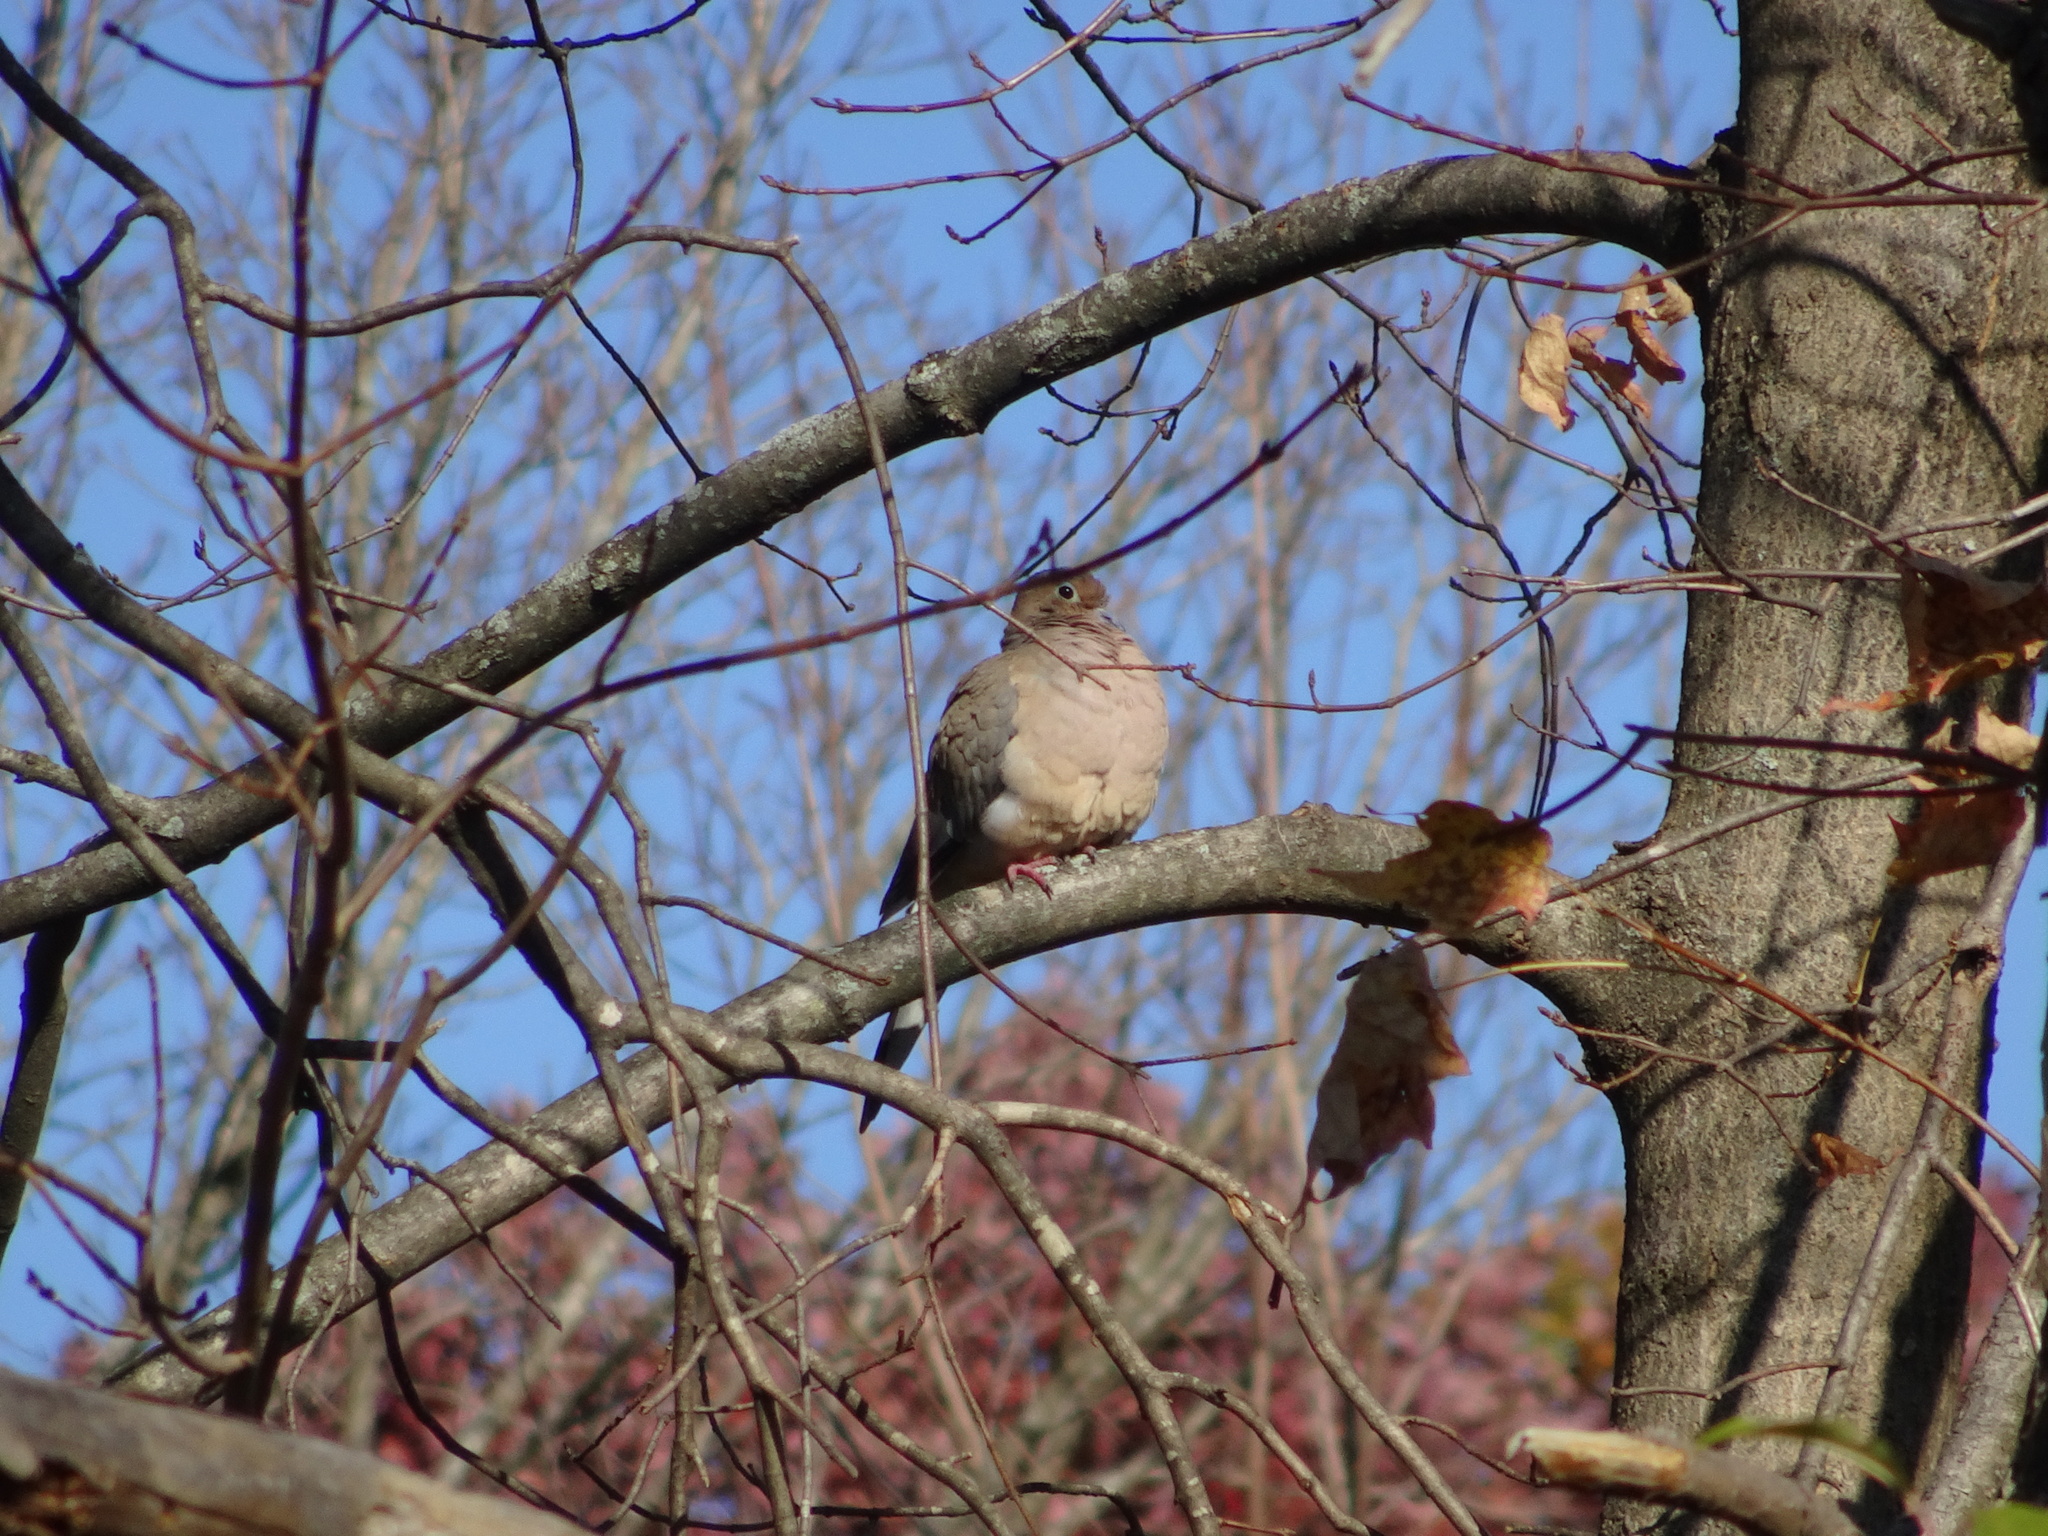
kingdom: Animalia
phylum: Chordata
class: Aves
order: Columbiformes
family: Columbidae
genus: Zenaida
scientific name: Zenaida macroura
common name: Mourning dove
